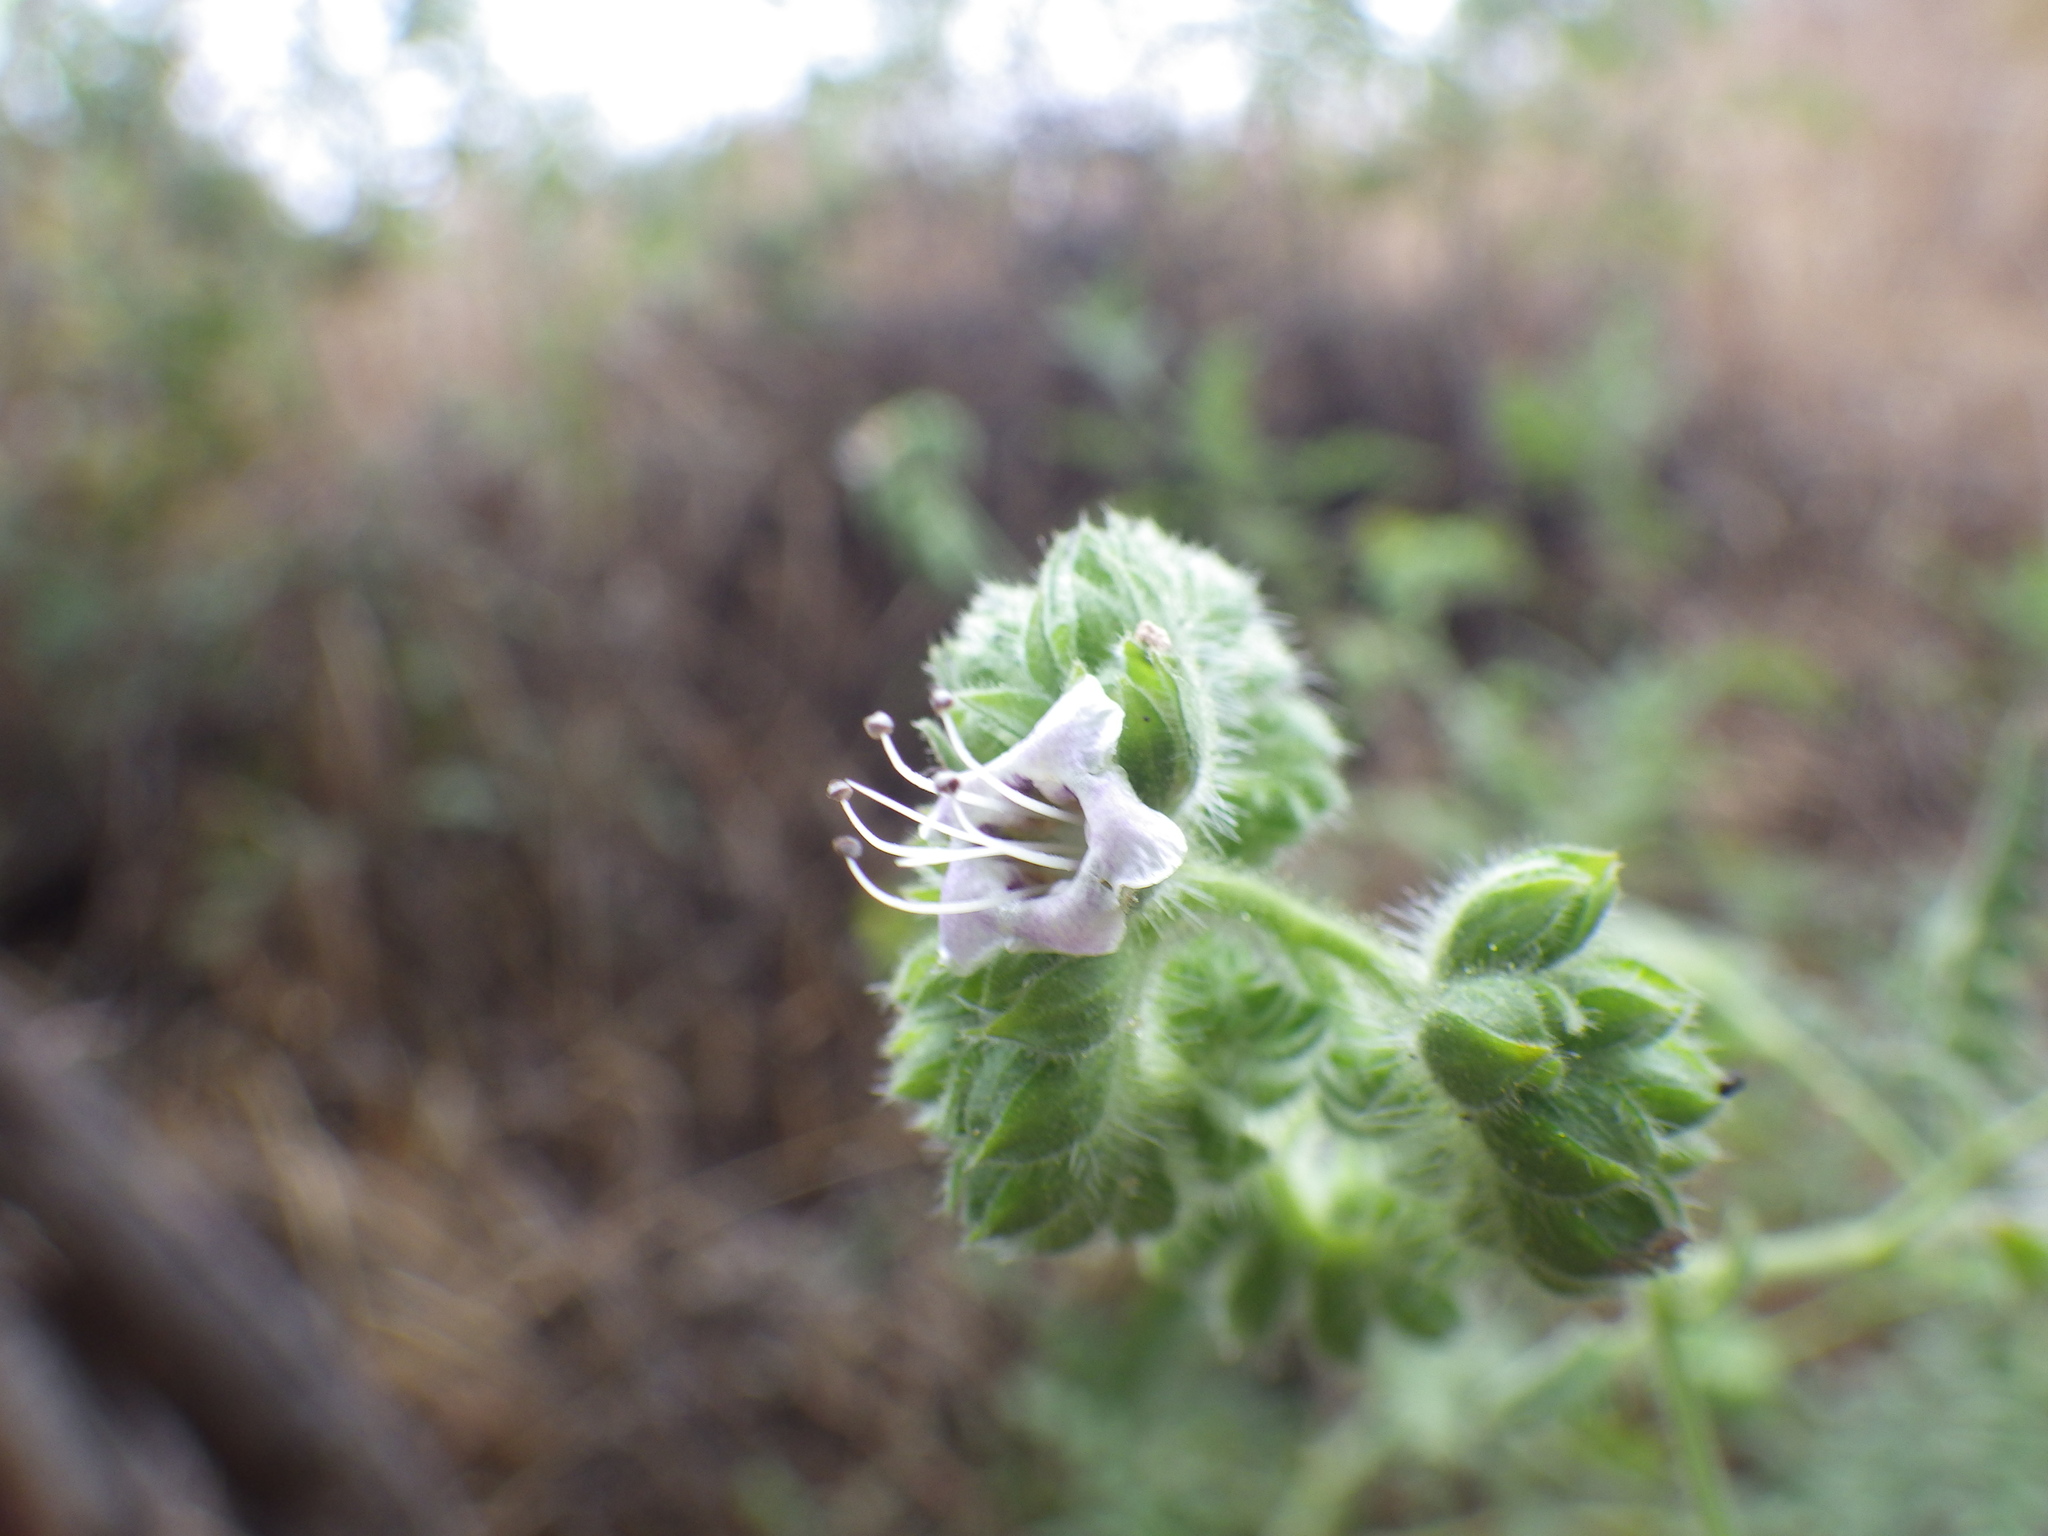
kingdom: Plantae
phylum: Tracheophyta
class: Magnoliopsida
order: Boraginales
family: Hydrophyllaceae
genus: Phacelia
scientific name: Phacelia ramosissima
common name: Branching phacelia
